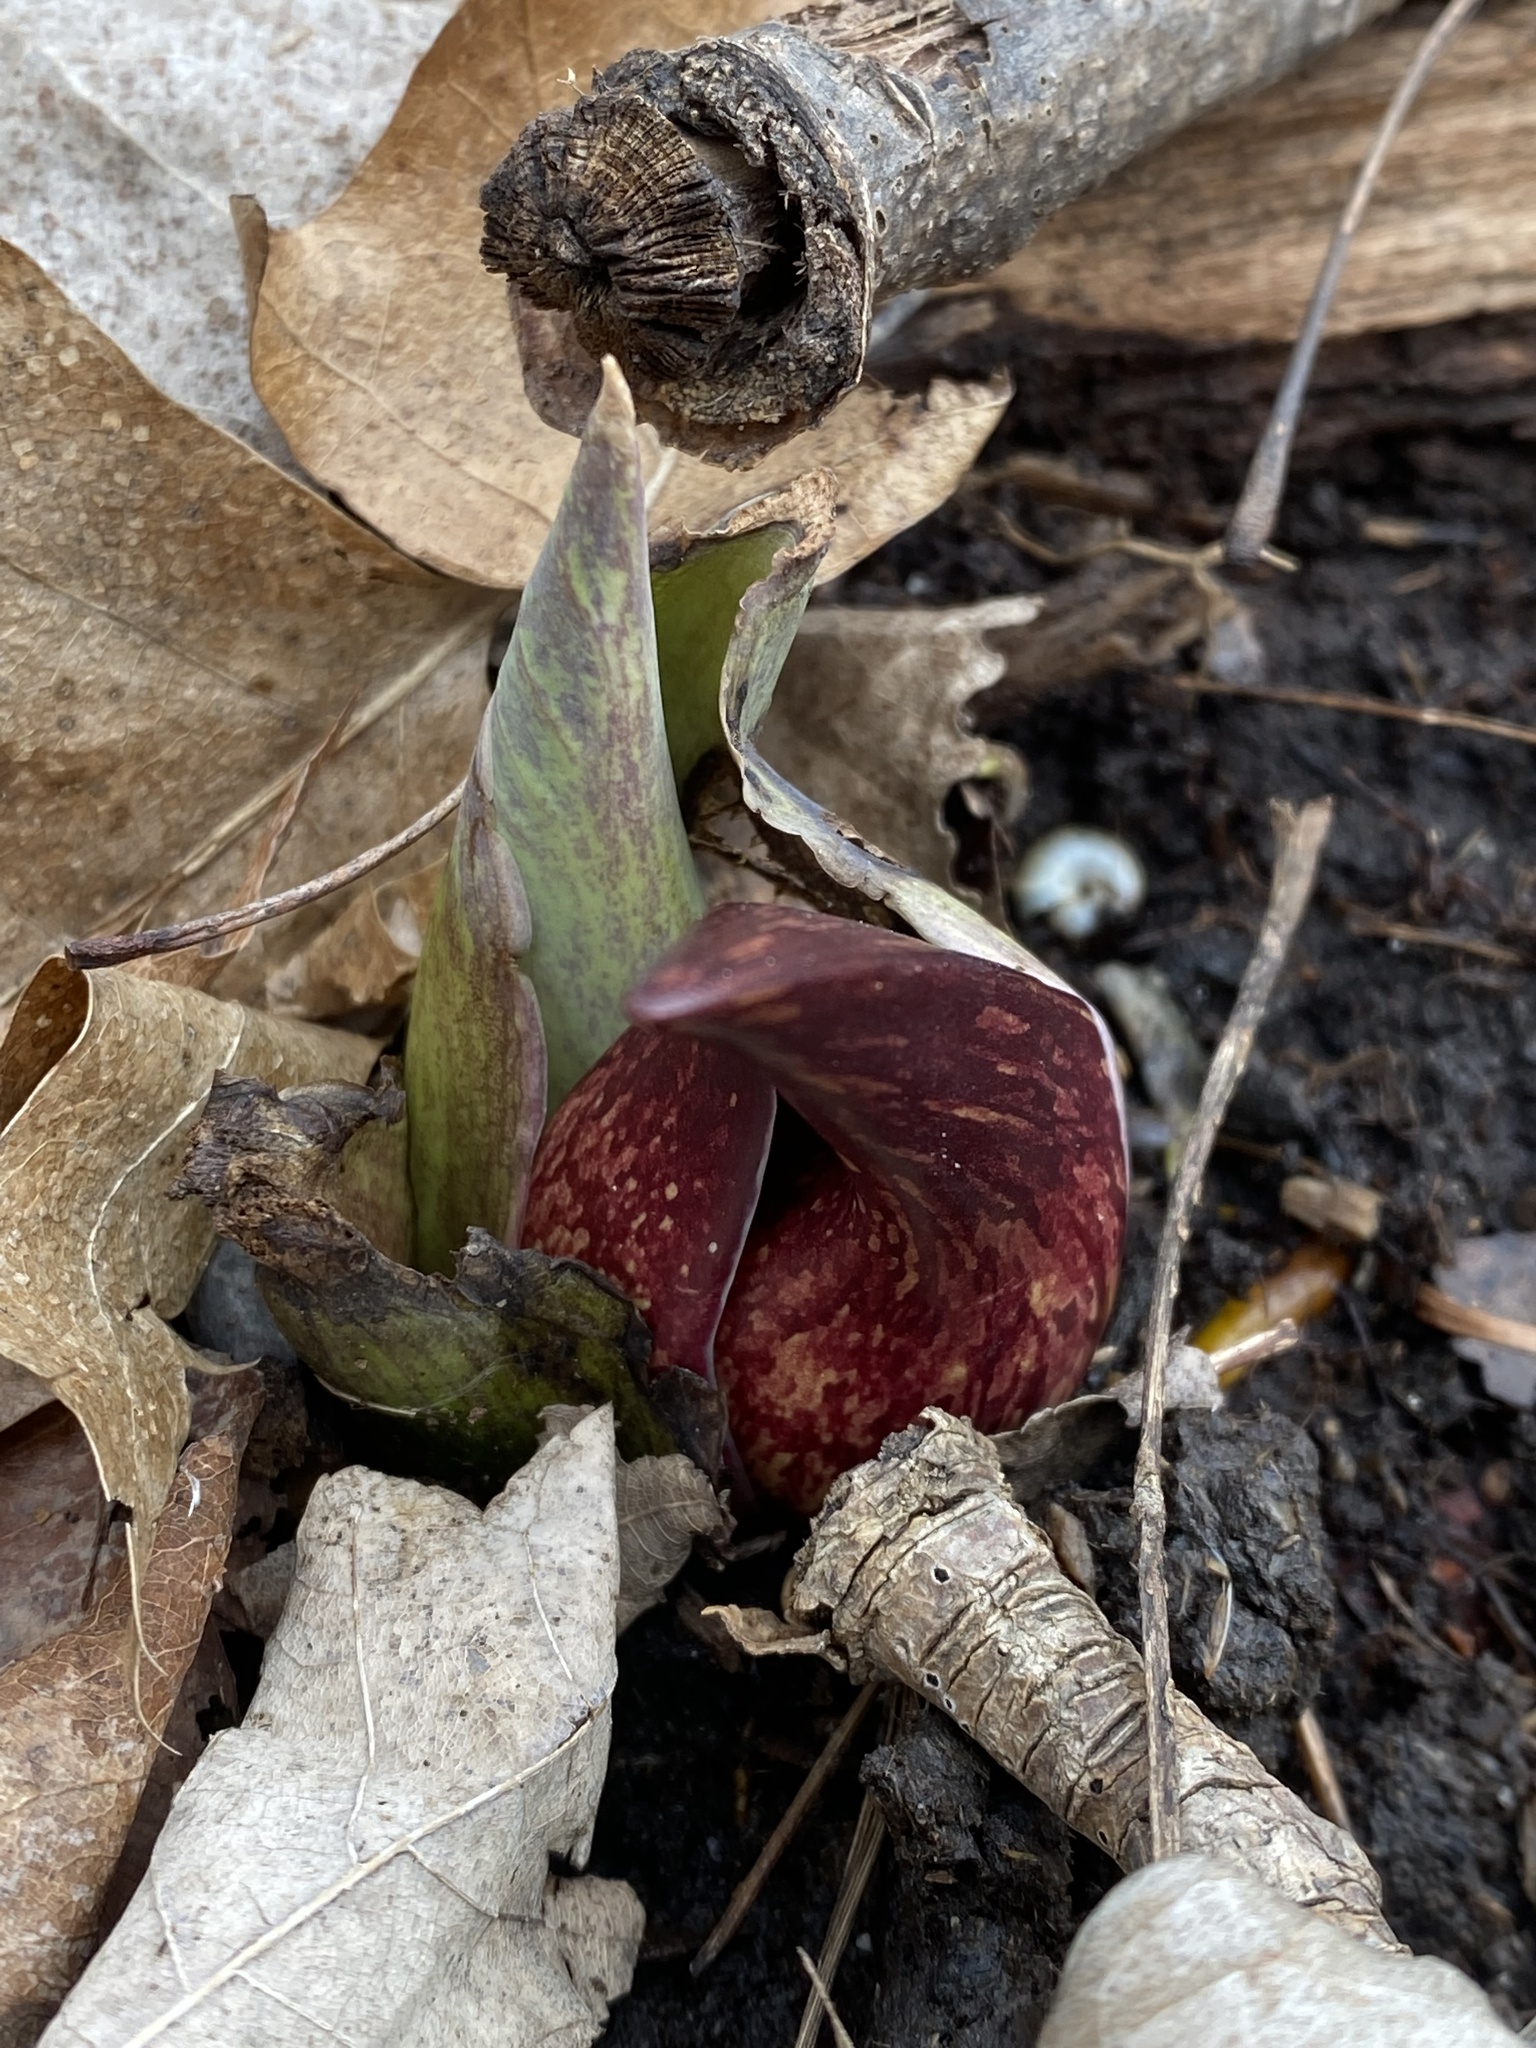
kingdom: Plantae
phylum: Tracheophyta
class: Liliopsida
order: Alismatales
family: Araceae
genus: Symplocarpus
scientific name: Symplocarpus foetidus
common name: Eastern skunk cabbage
